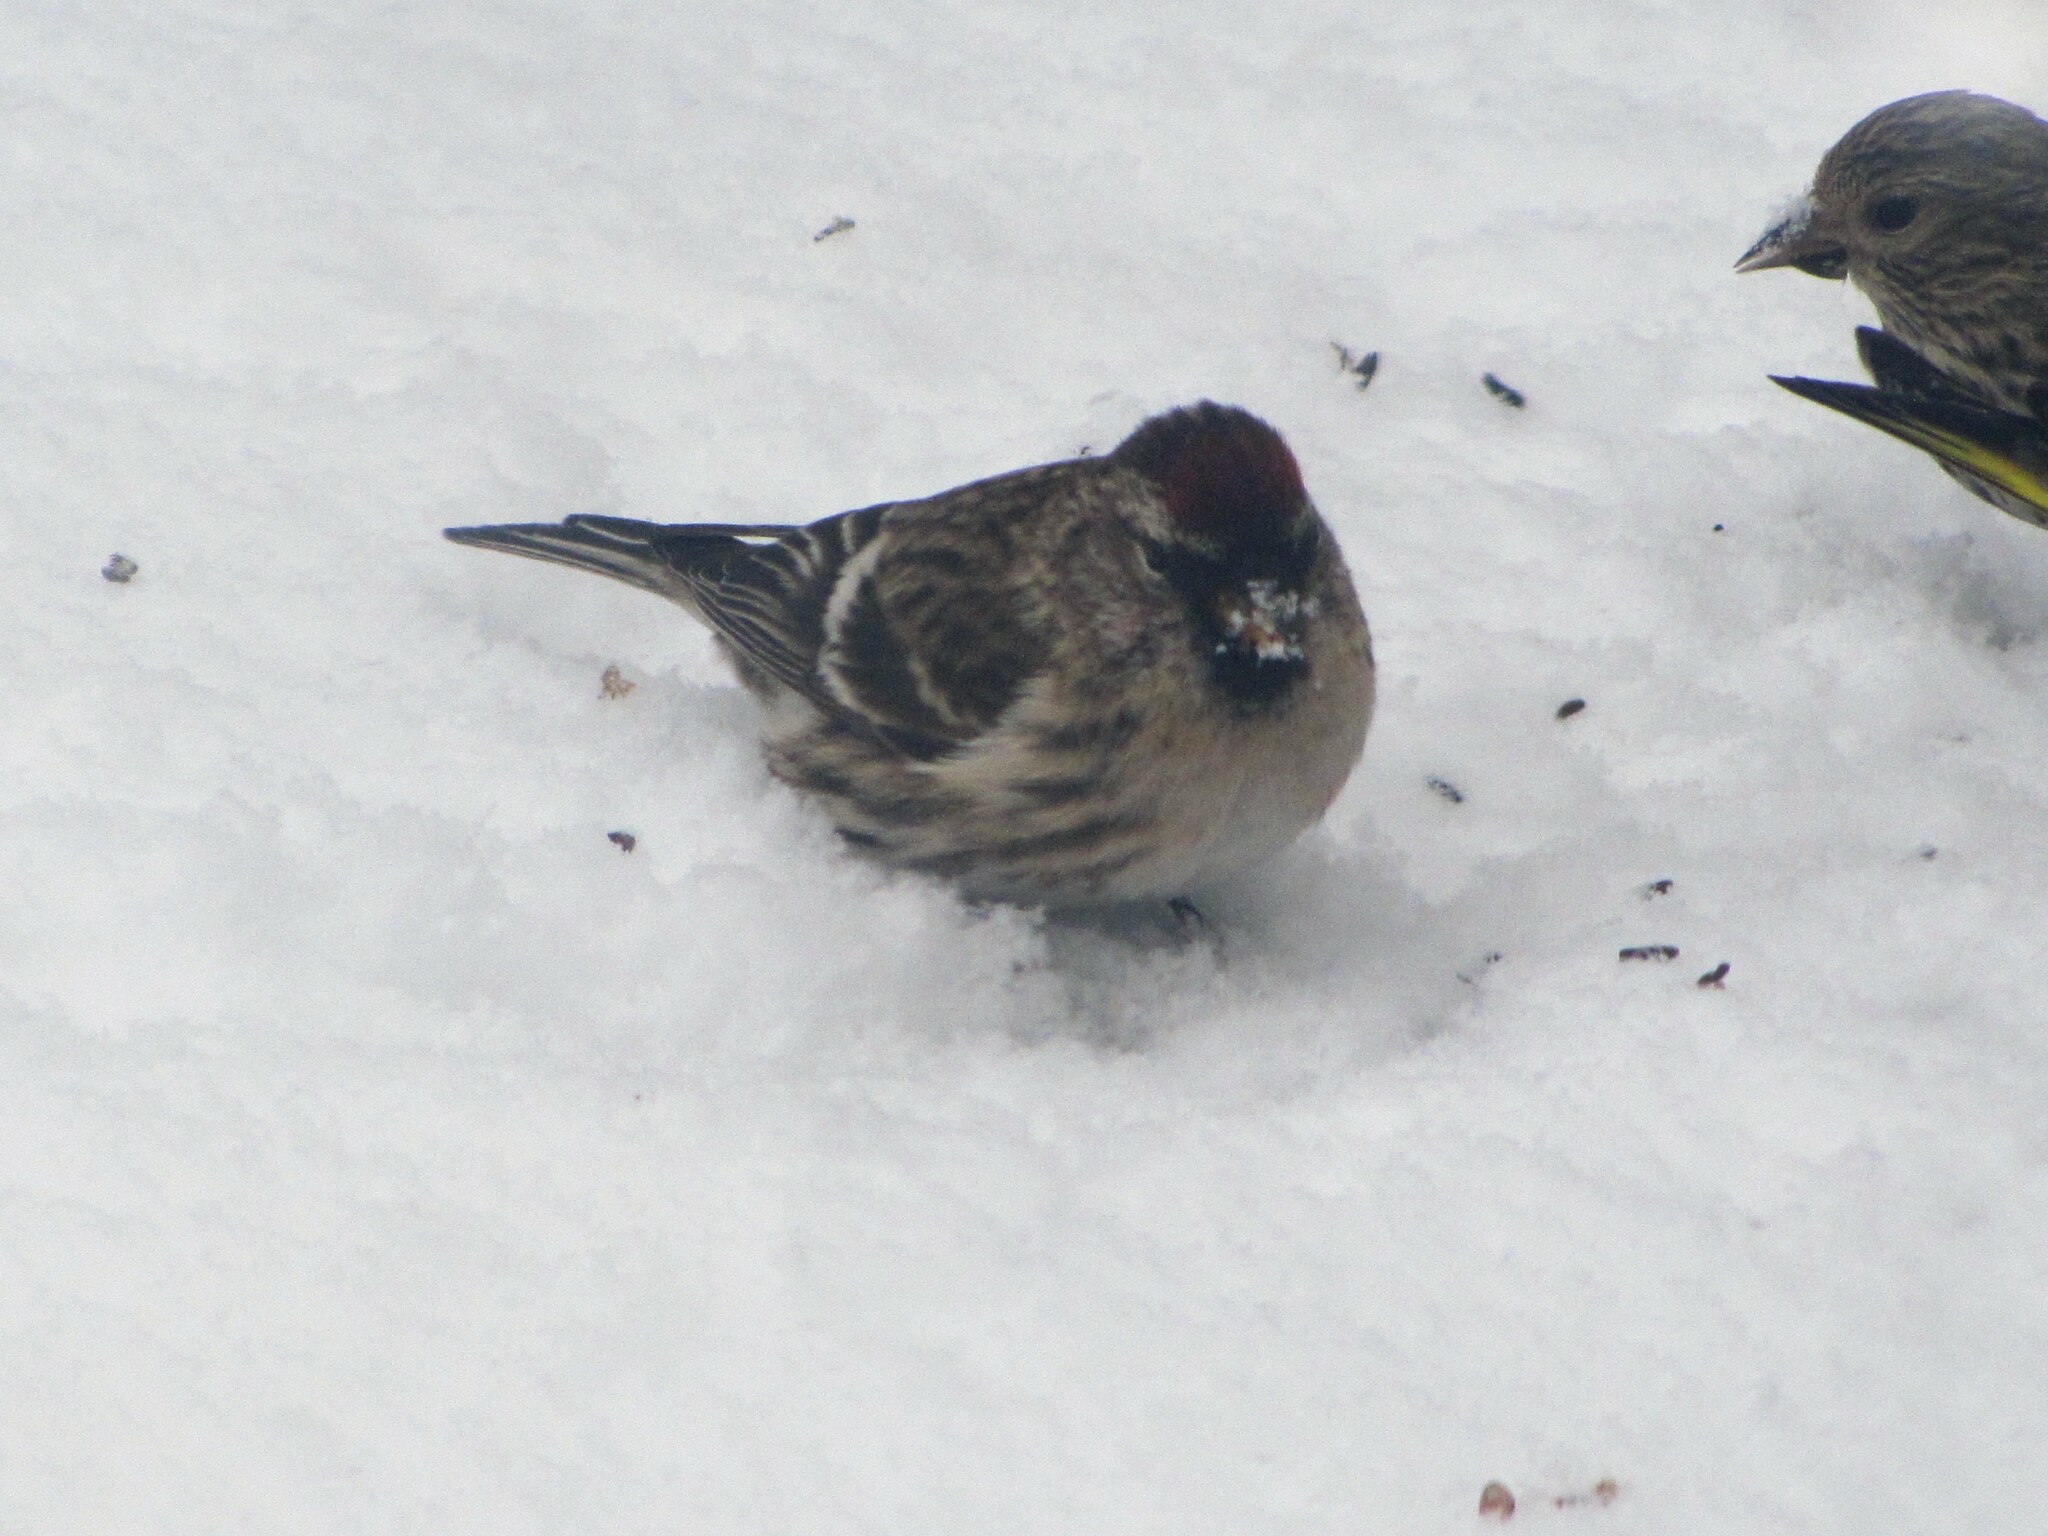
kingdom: Animalia
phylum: Chordata
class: Aves
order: Passeriformes
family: Fringillidae
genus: Acanthis
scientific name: Acanthis flammea
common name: Common redpoll
